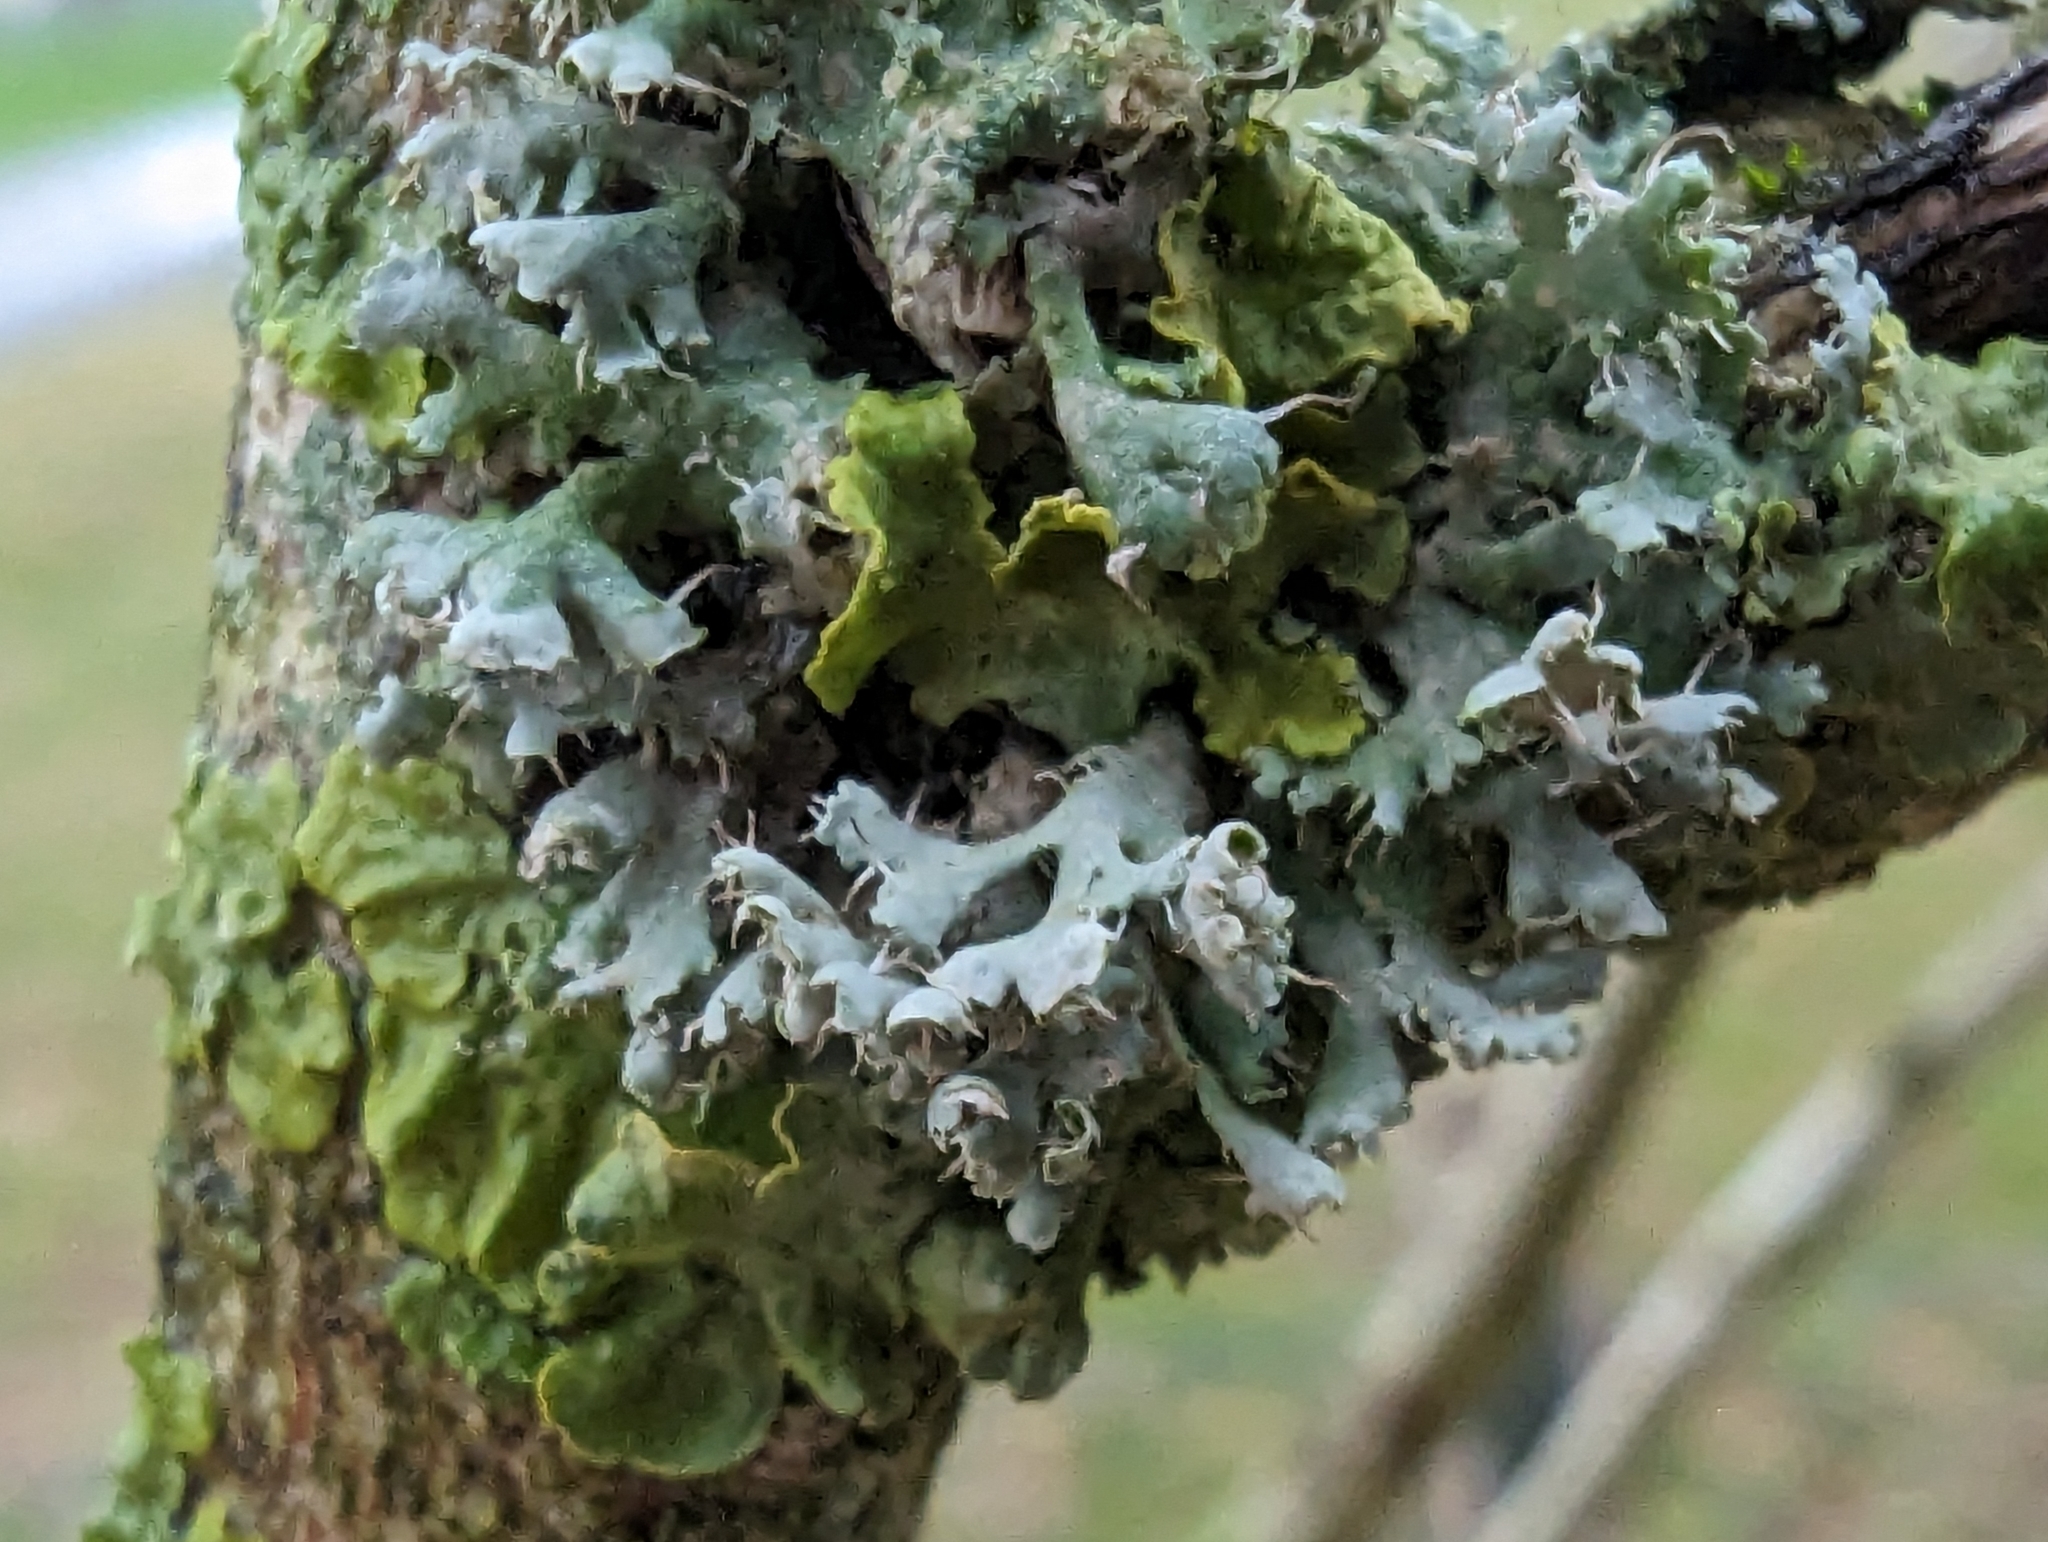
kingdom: Fungi
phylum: Ascomycota
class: Lecanoromycetes
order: Caliciales
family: Physciaceae
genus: Physcia
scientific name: Physcia adscendens
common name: Hooded rosette lichen
